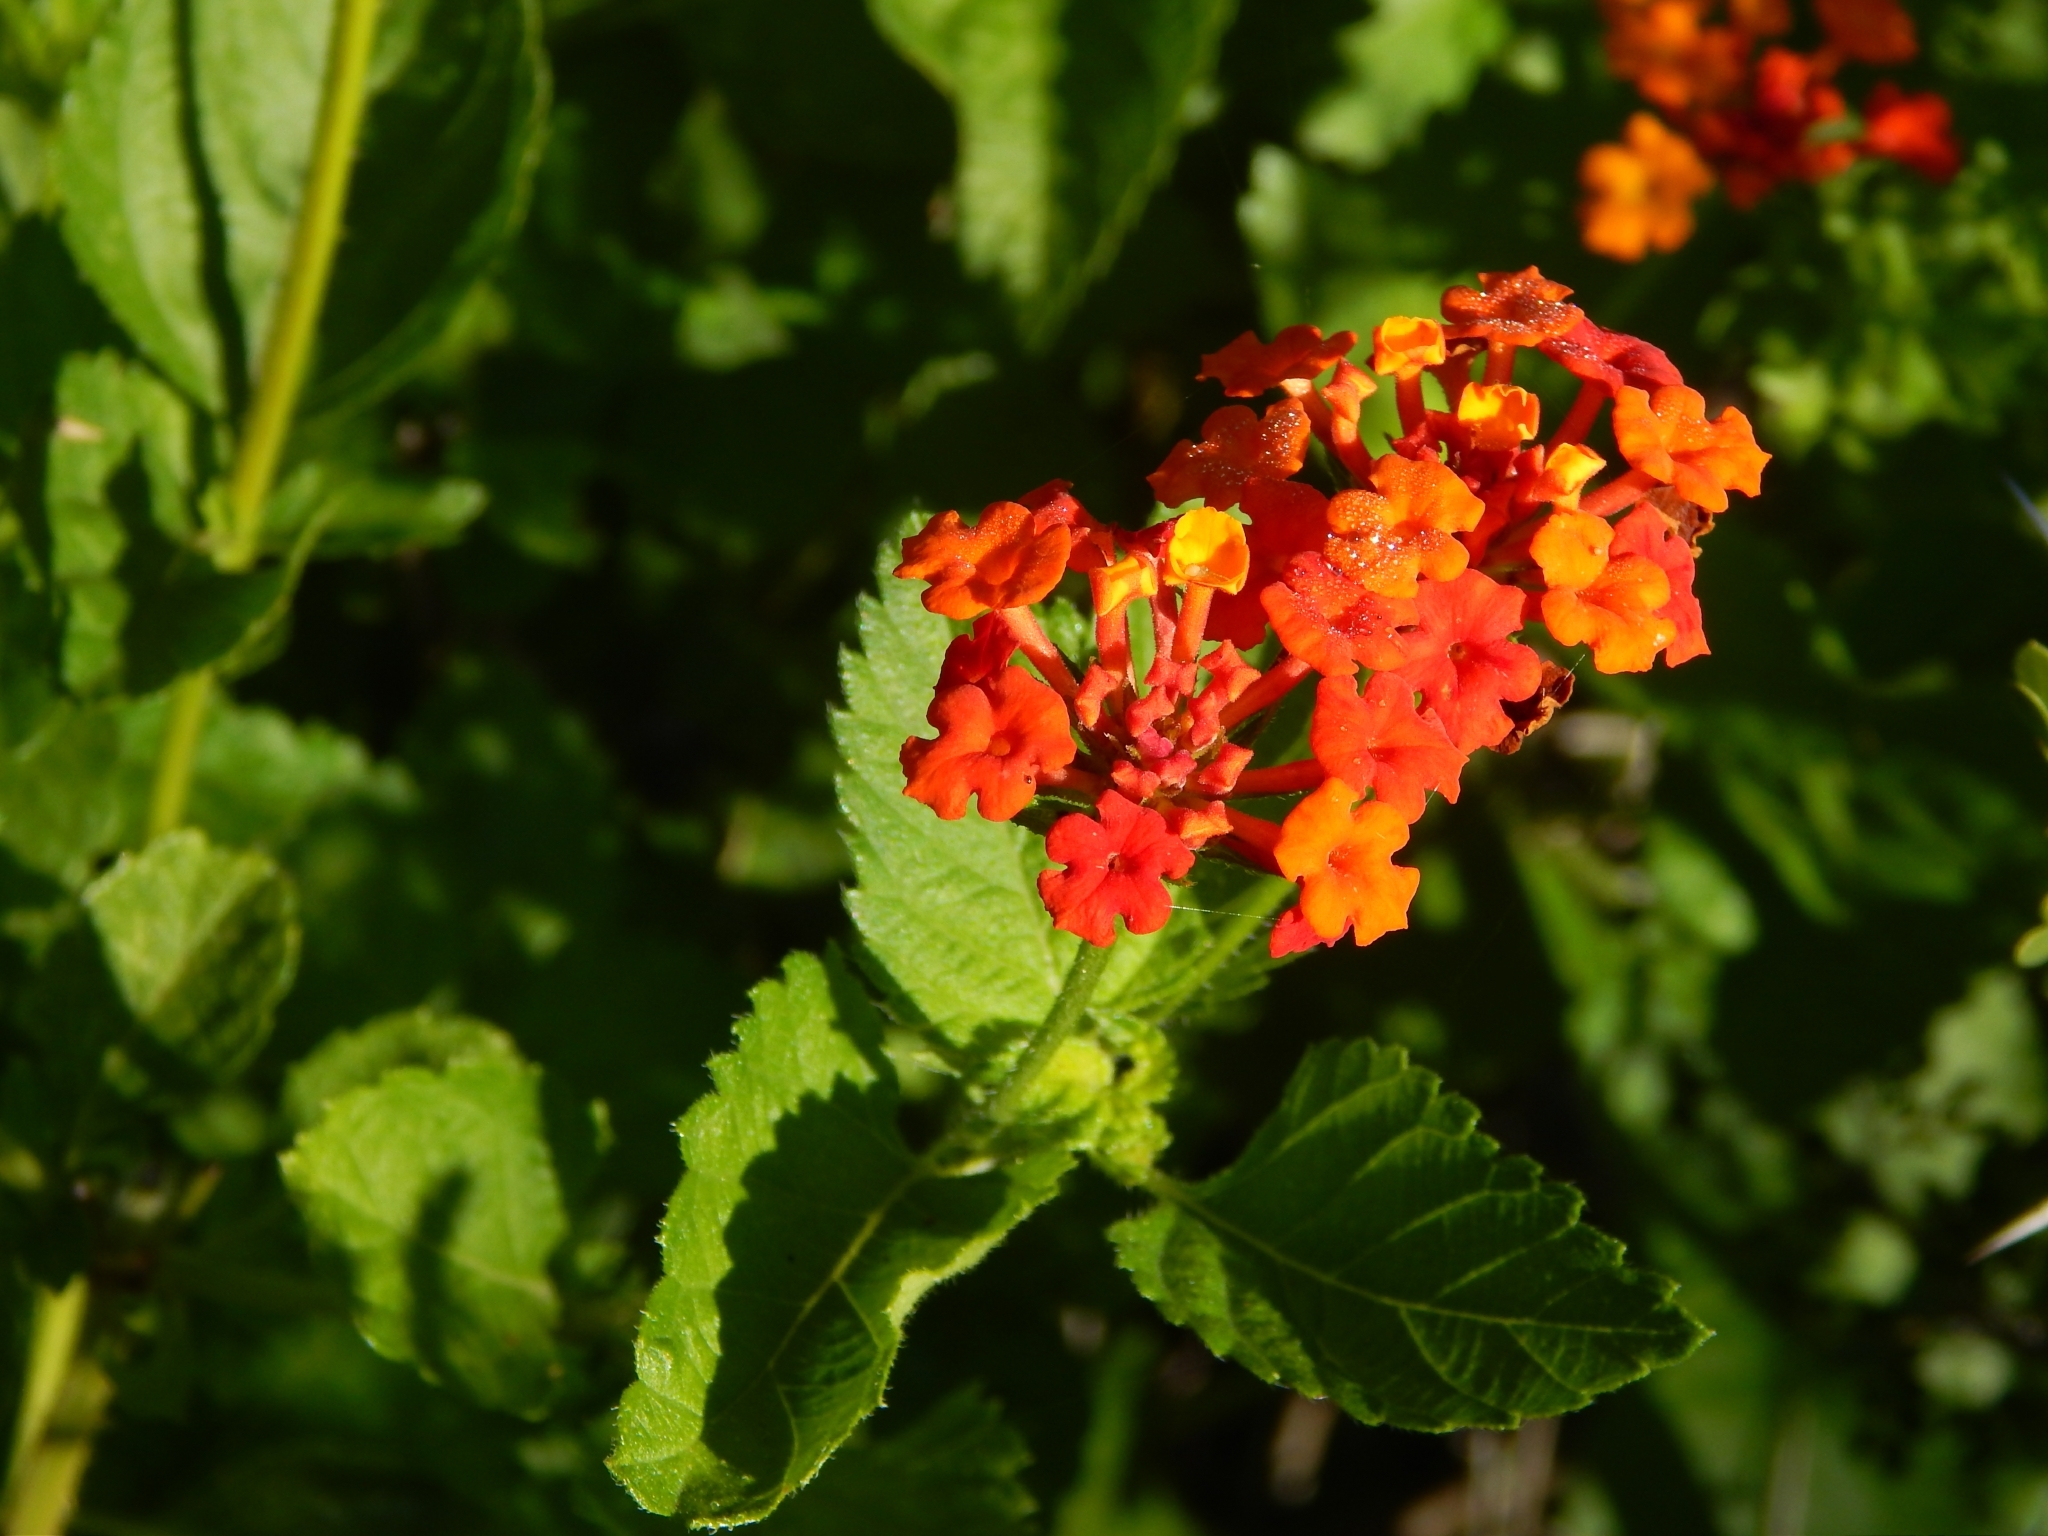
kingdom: Plantae
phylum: Tracheophyta
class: Magnoliopsida
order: Lamiales
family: Verbenaceae
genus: Lantana
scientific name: Lantana camara
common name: Lantana
